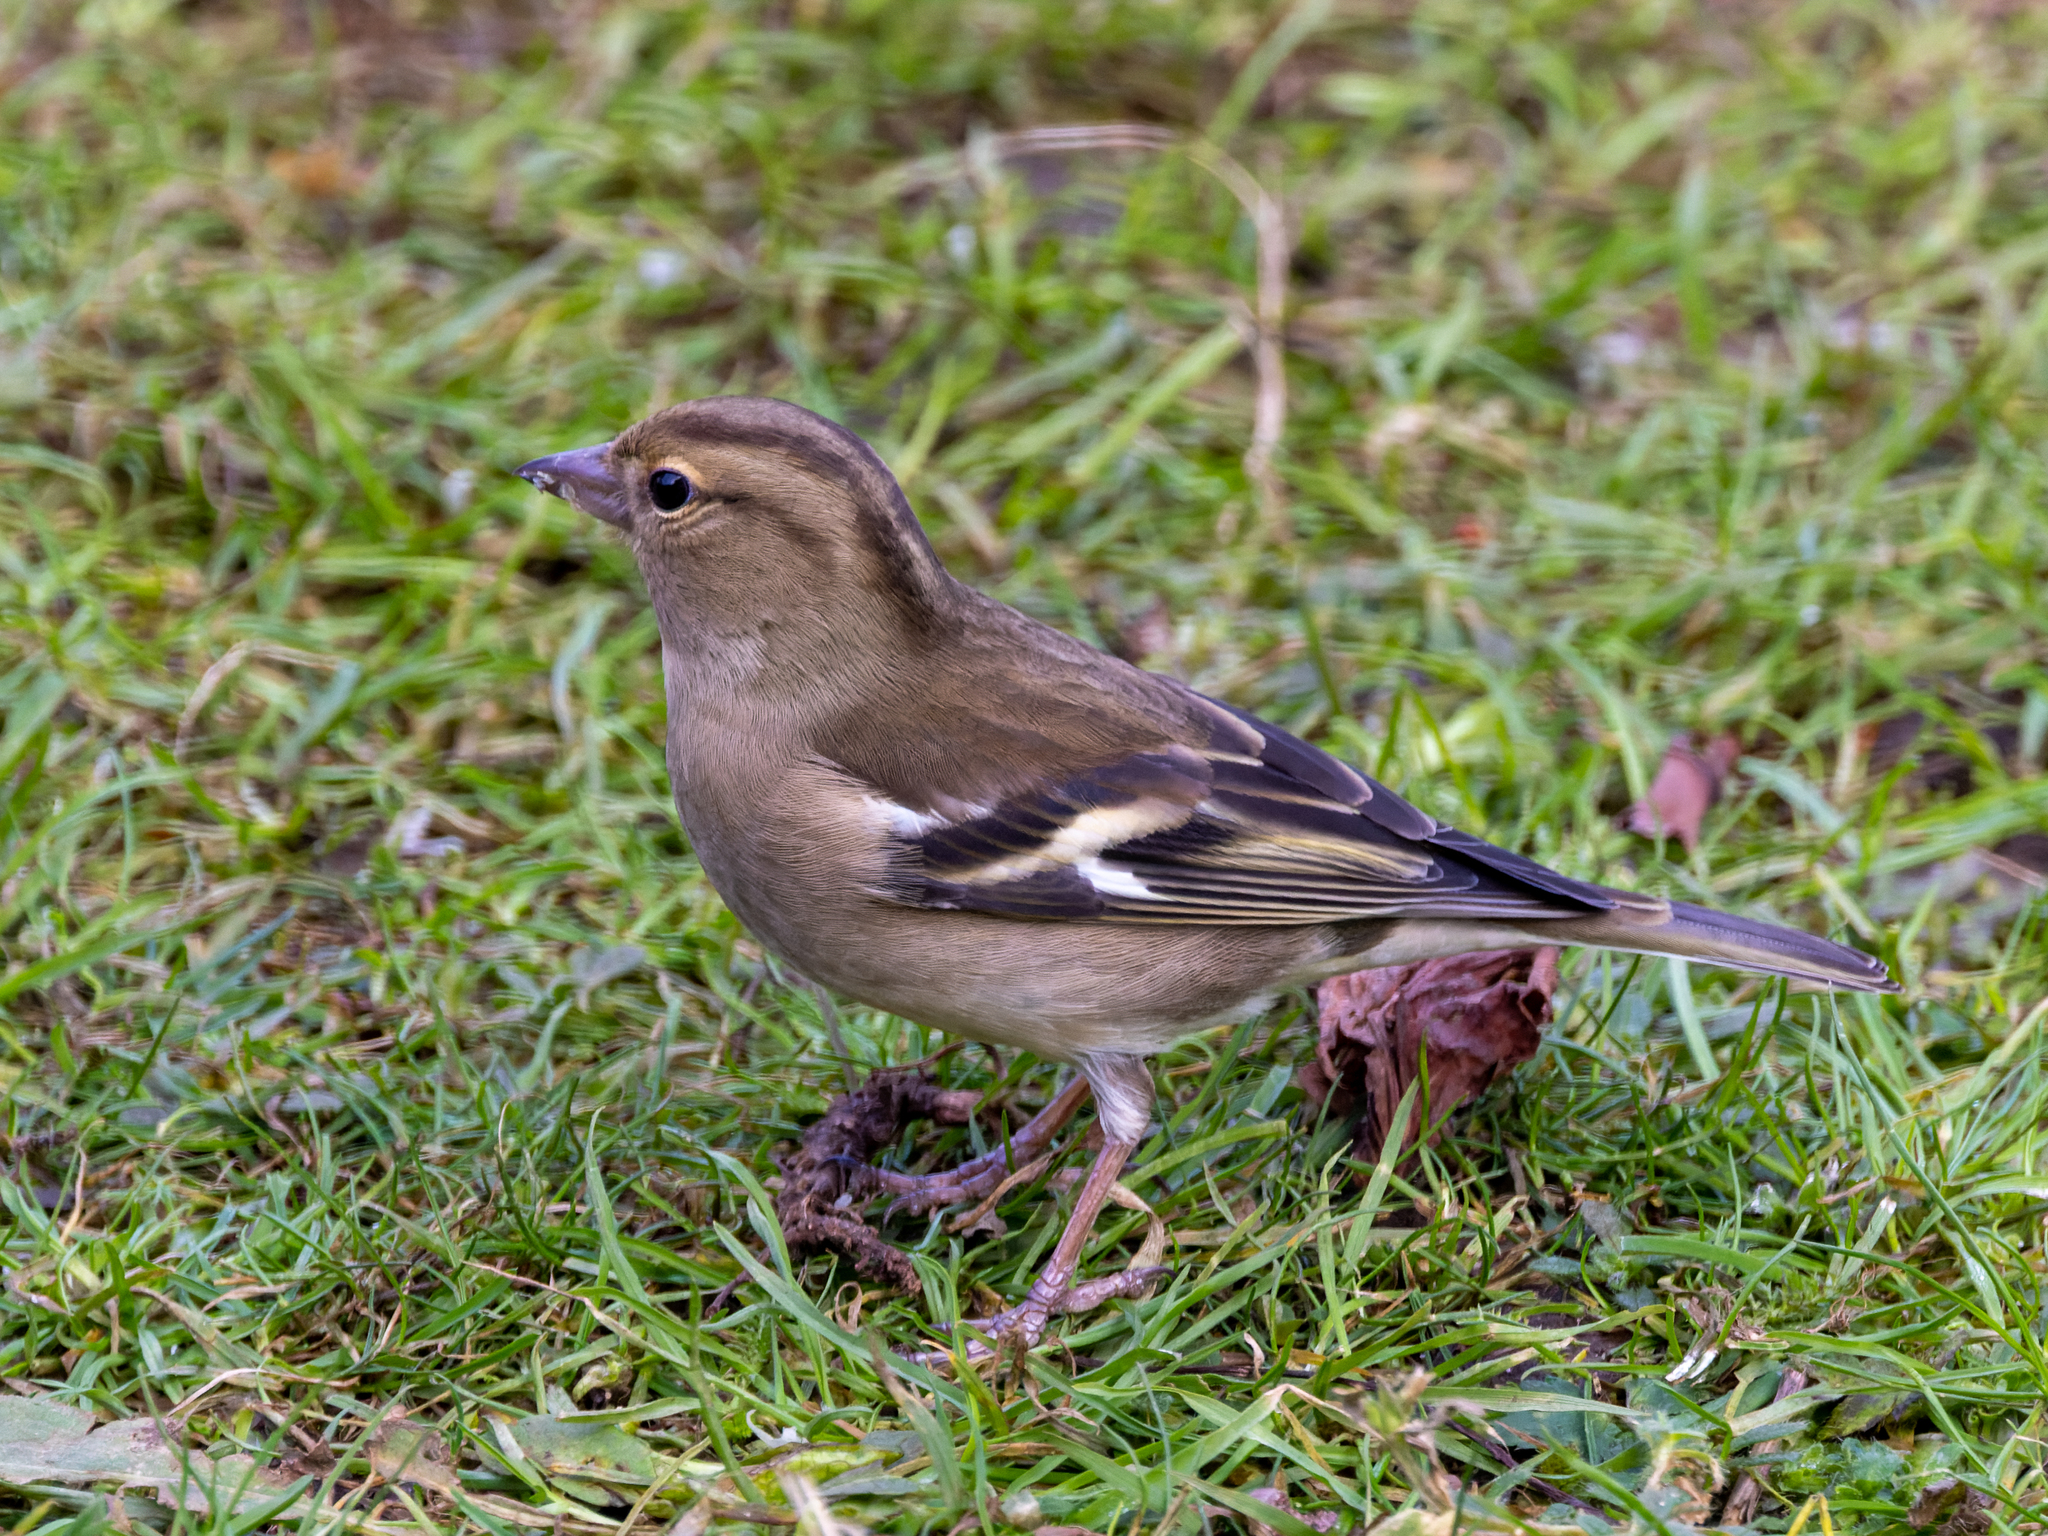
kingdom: Animalia
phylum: Chordata
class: Aves
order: Passeriformes
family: Fringillidae
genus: Fringilla
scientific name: Fringilla coelebs
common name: Common chaffinch
